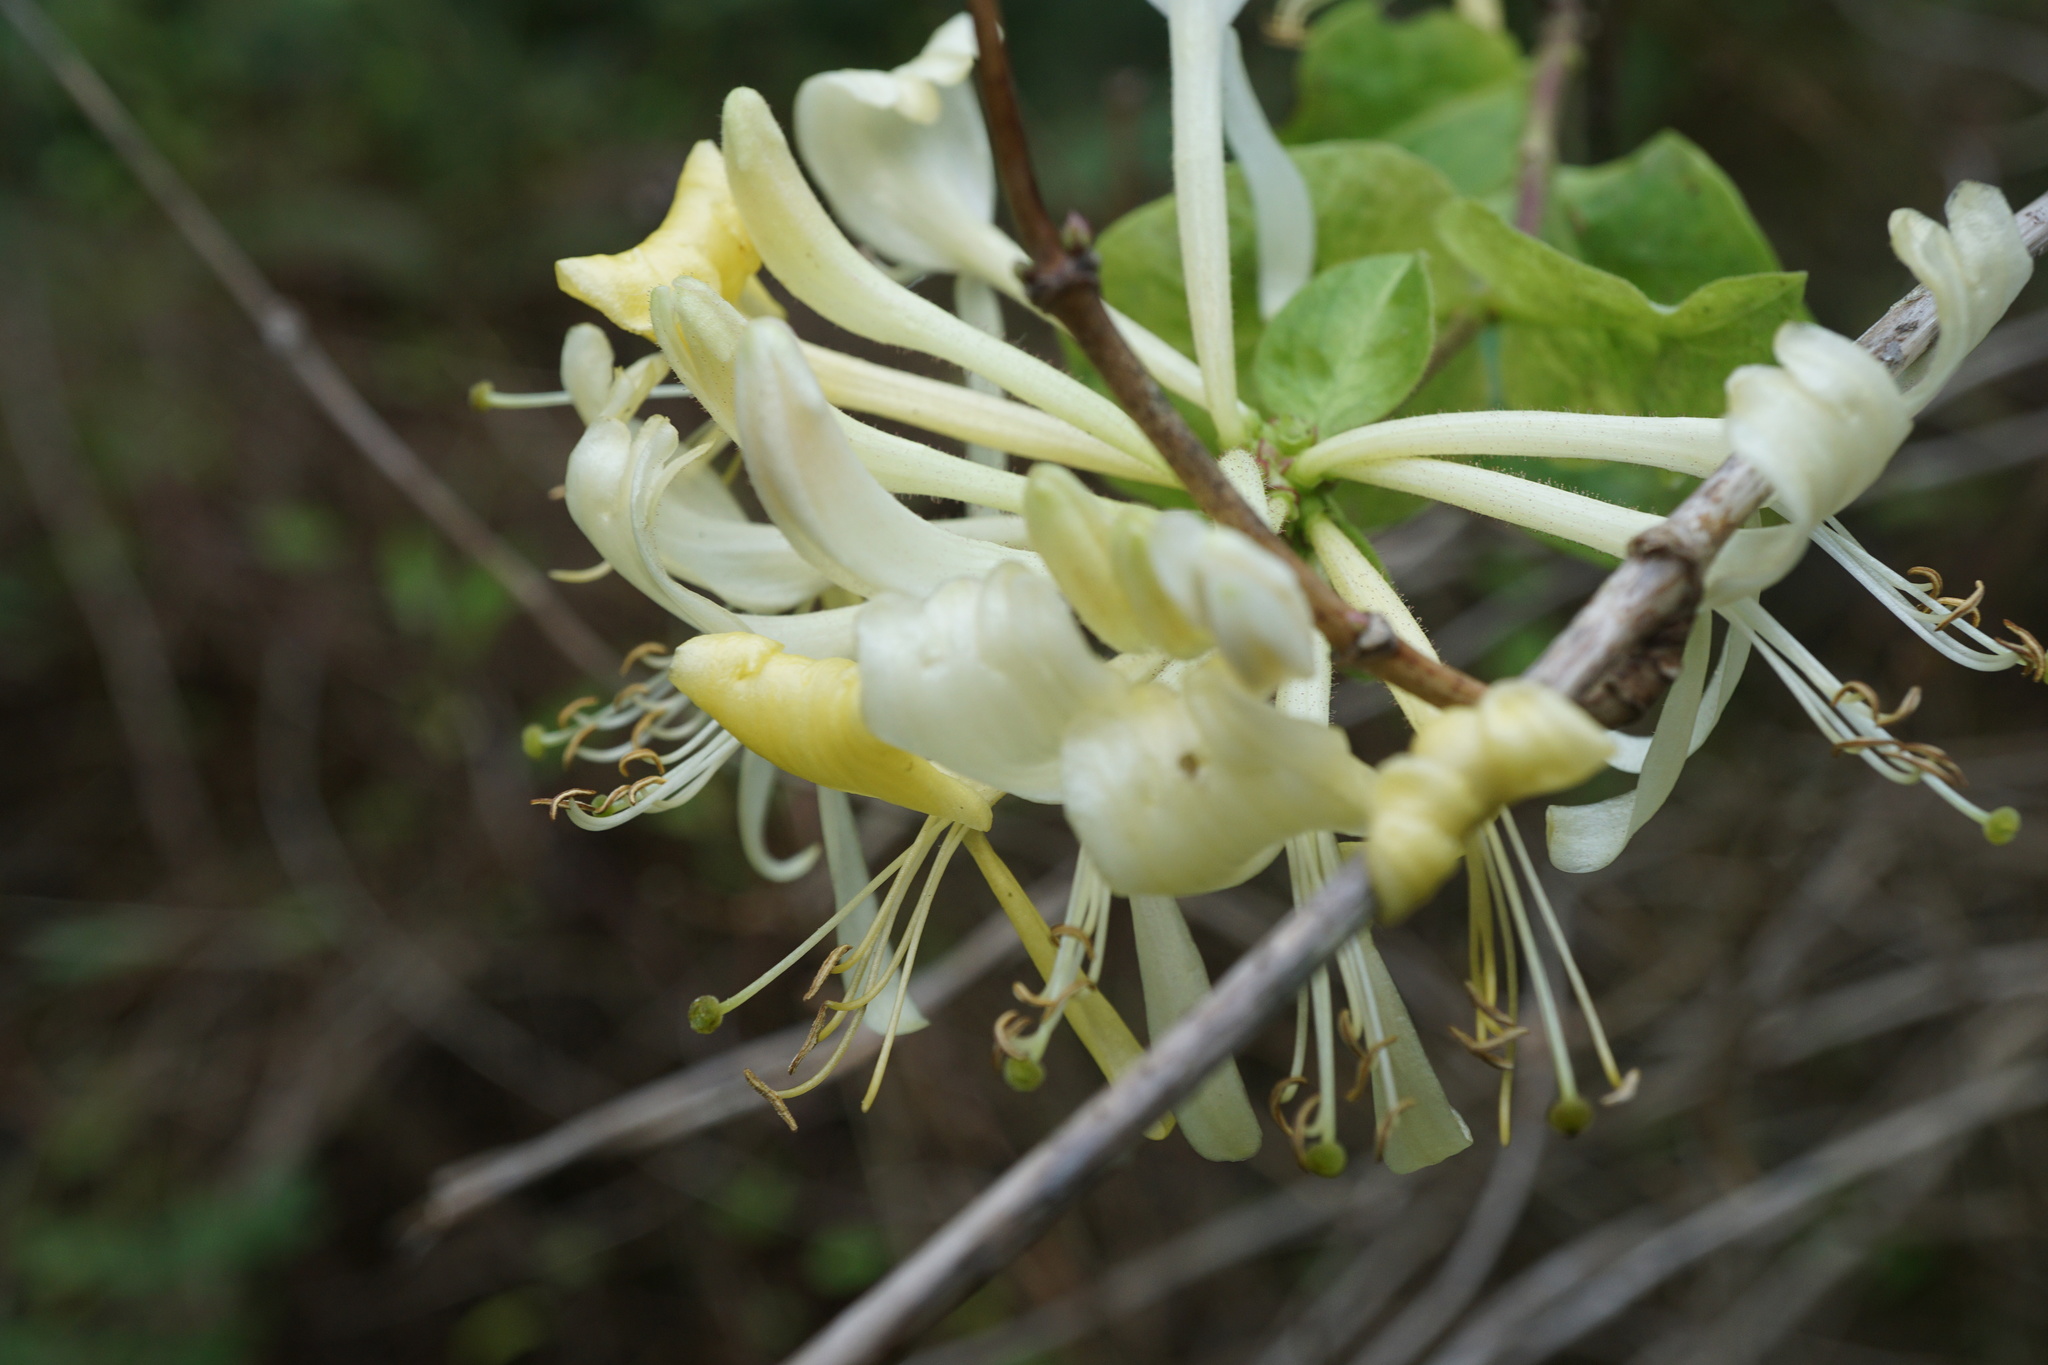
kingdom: Plantae
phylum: Tracheophyta
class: Magnoliopsida
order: Dipsacales
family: Caprifoliaceae
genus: Lonicera
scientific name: Lonicera periclymenum
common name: European honeysuckle
